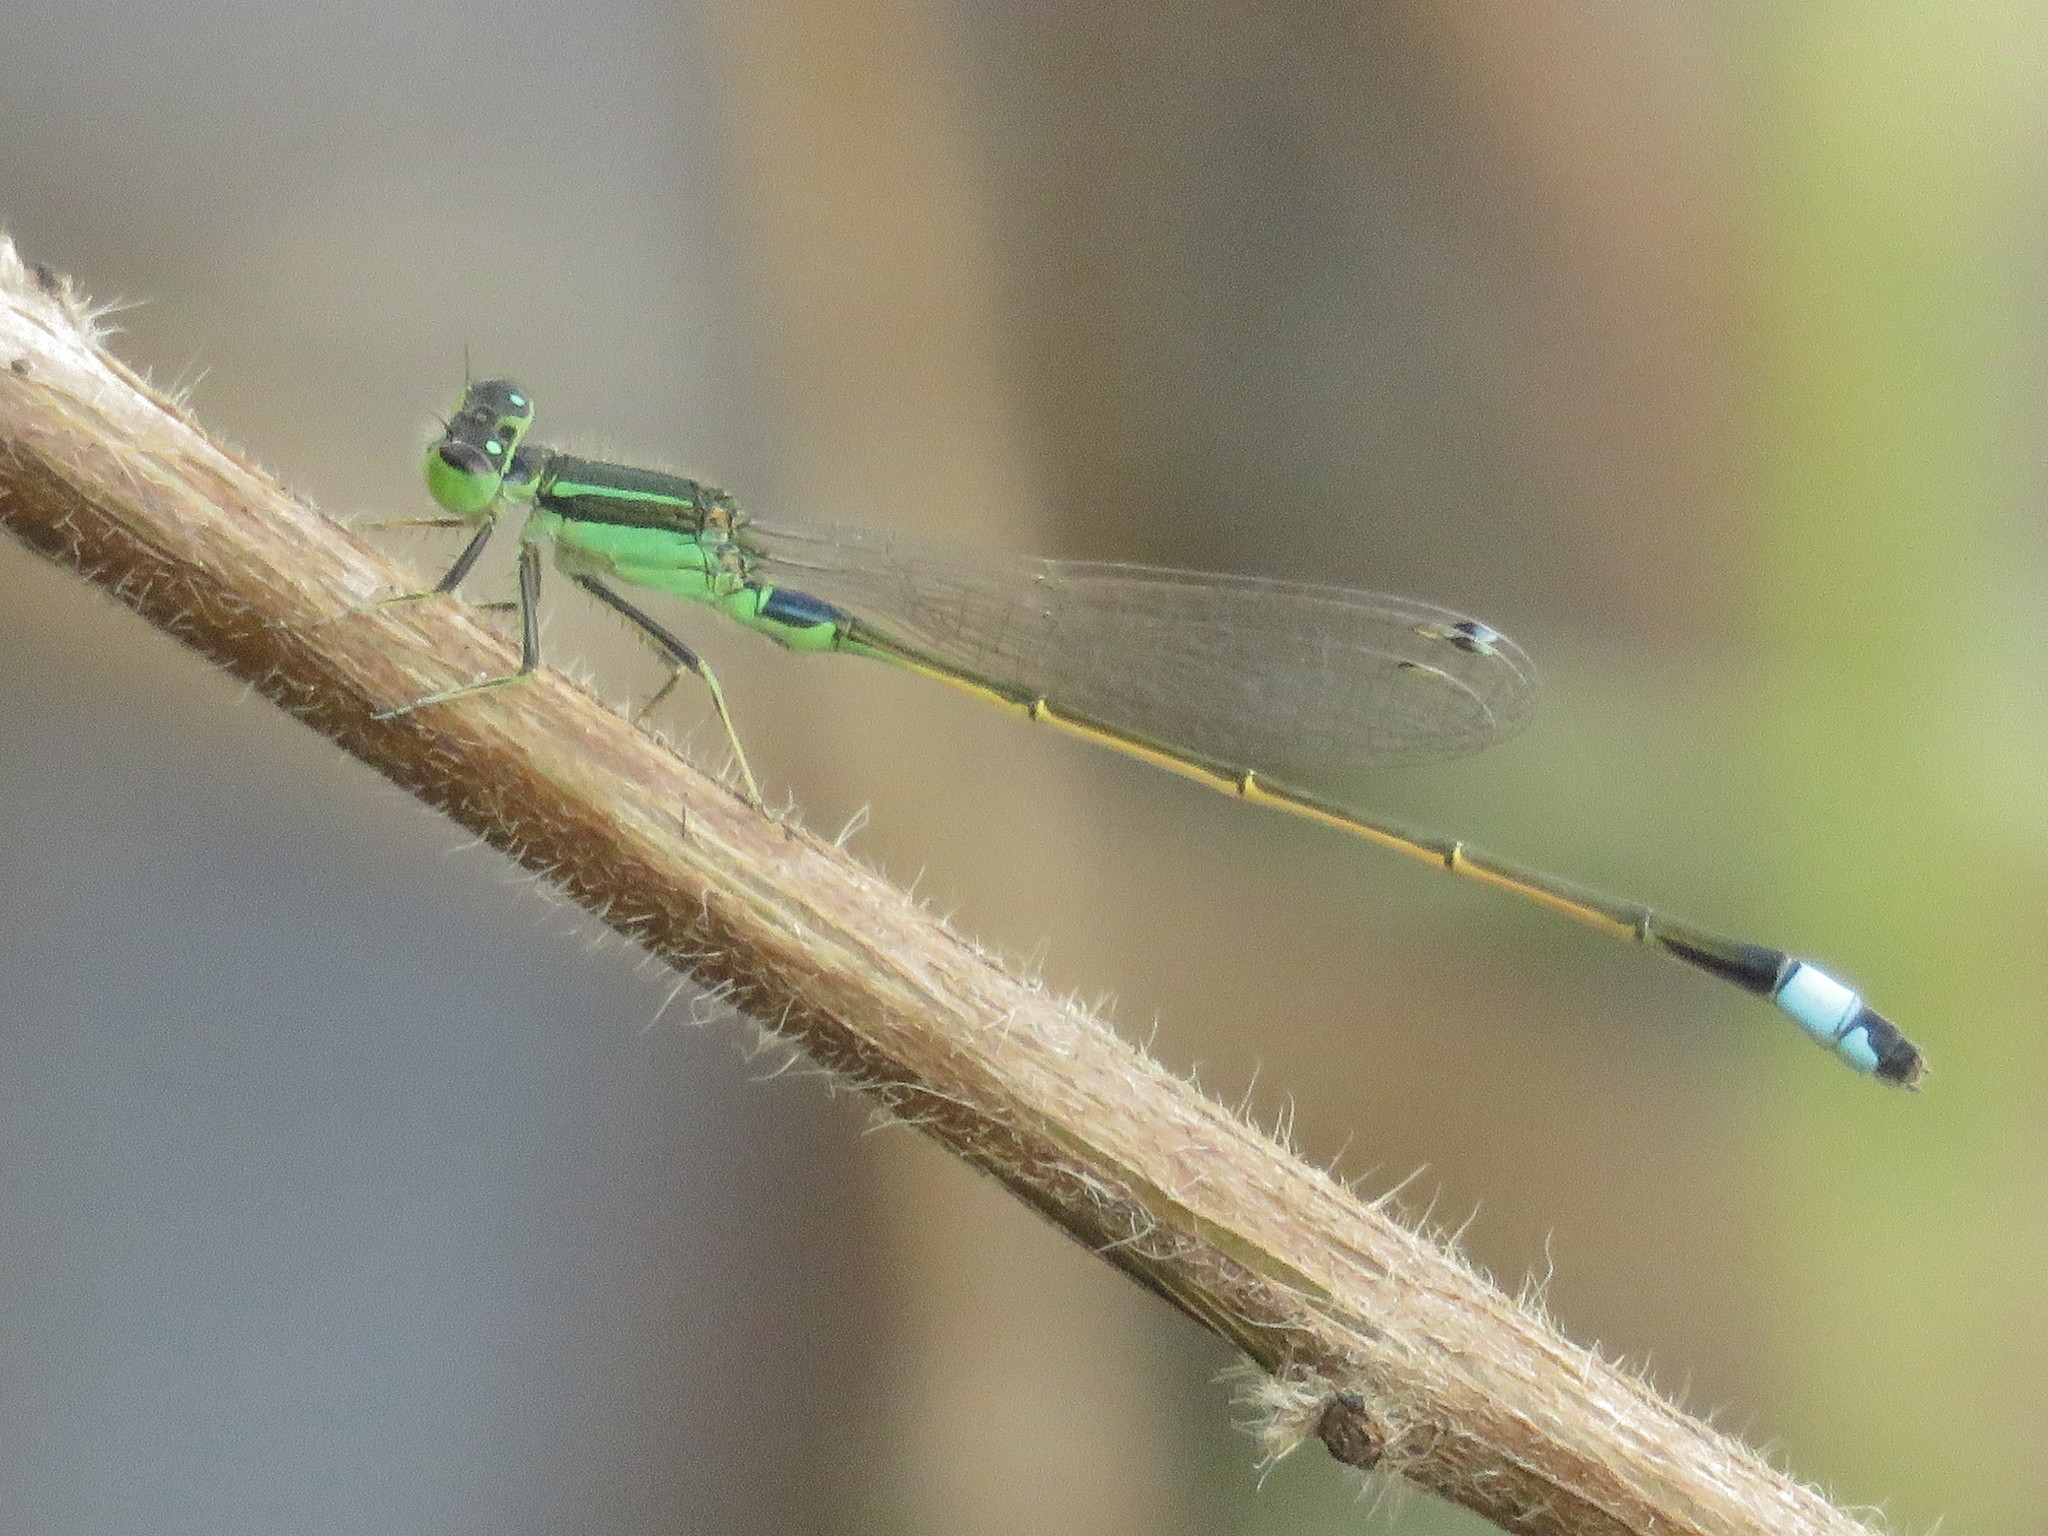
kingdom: Animalia
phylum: Arthropoda
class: Insecta
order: Odonata
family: Coenagrionidae
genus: Ischnura
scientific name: Ischnura senegalensis
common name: Tropical bluetail
